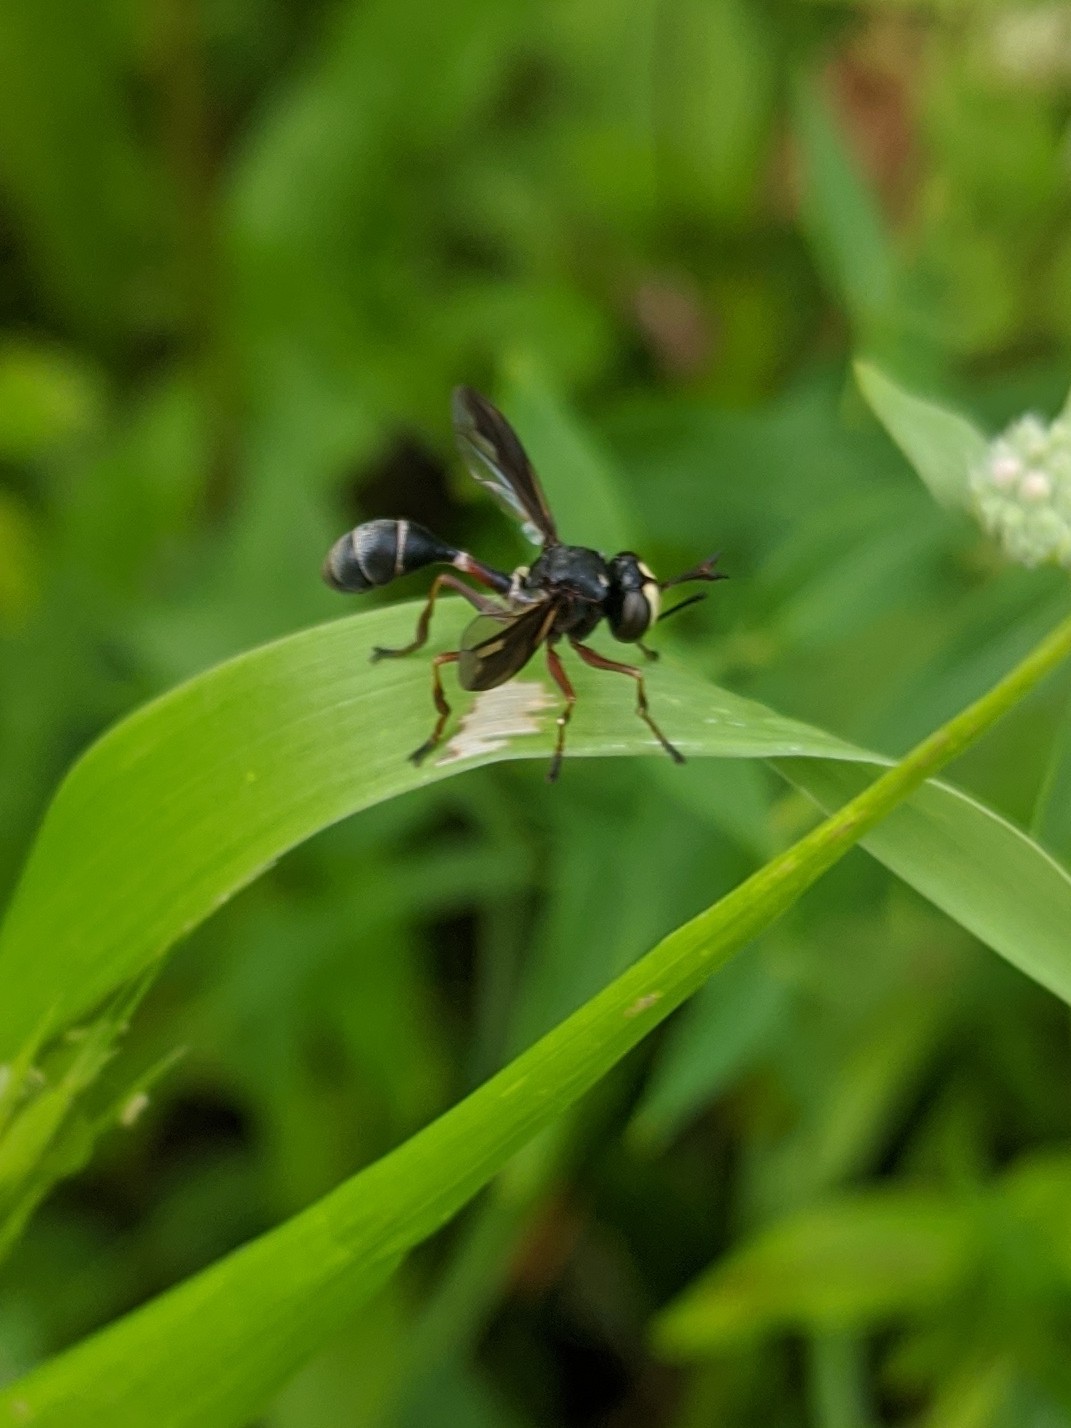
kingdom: Animalia
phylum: Arthropoda
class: Insecta
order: Diptera
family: Conopidae
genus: Physocephala
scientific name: Physocephala furcillata
